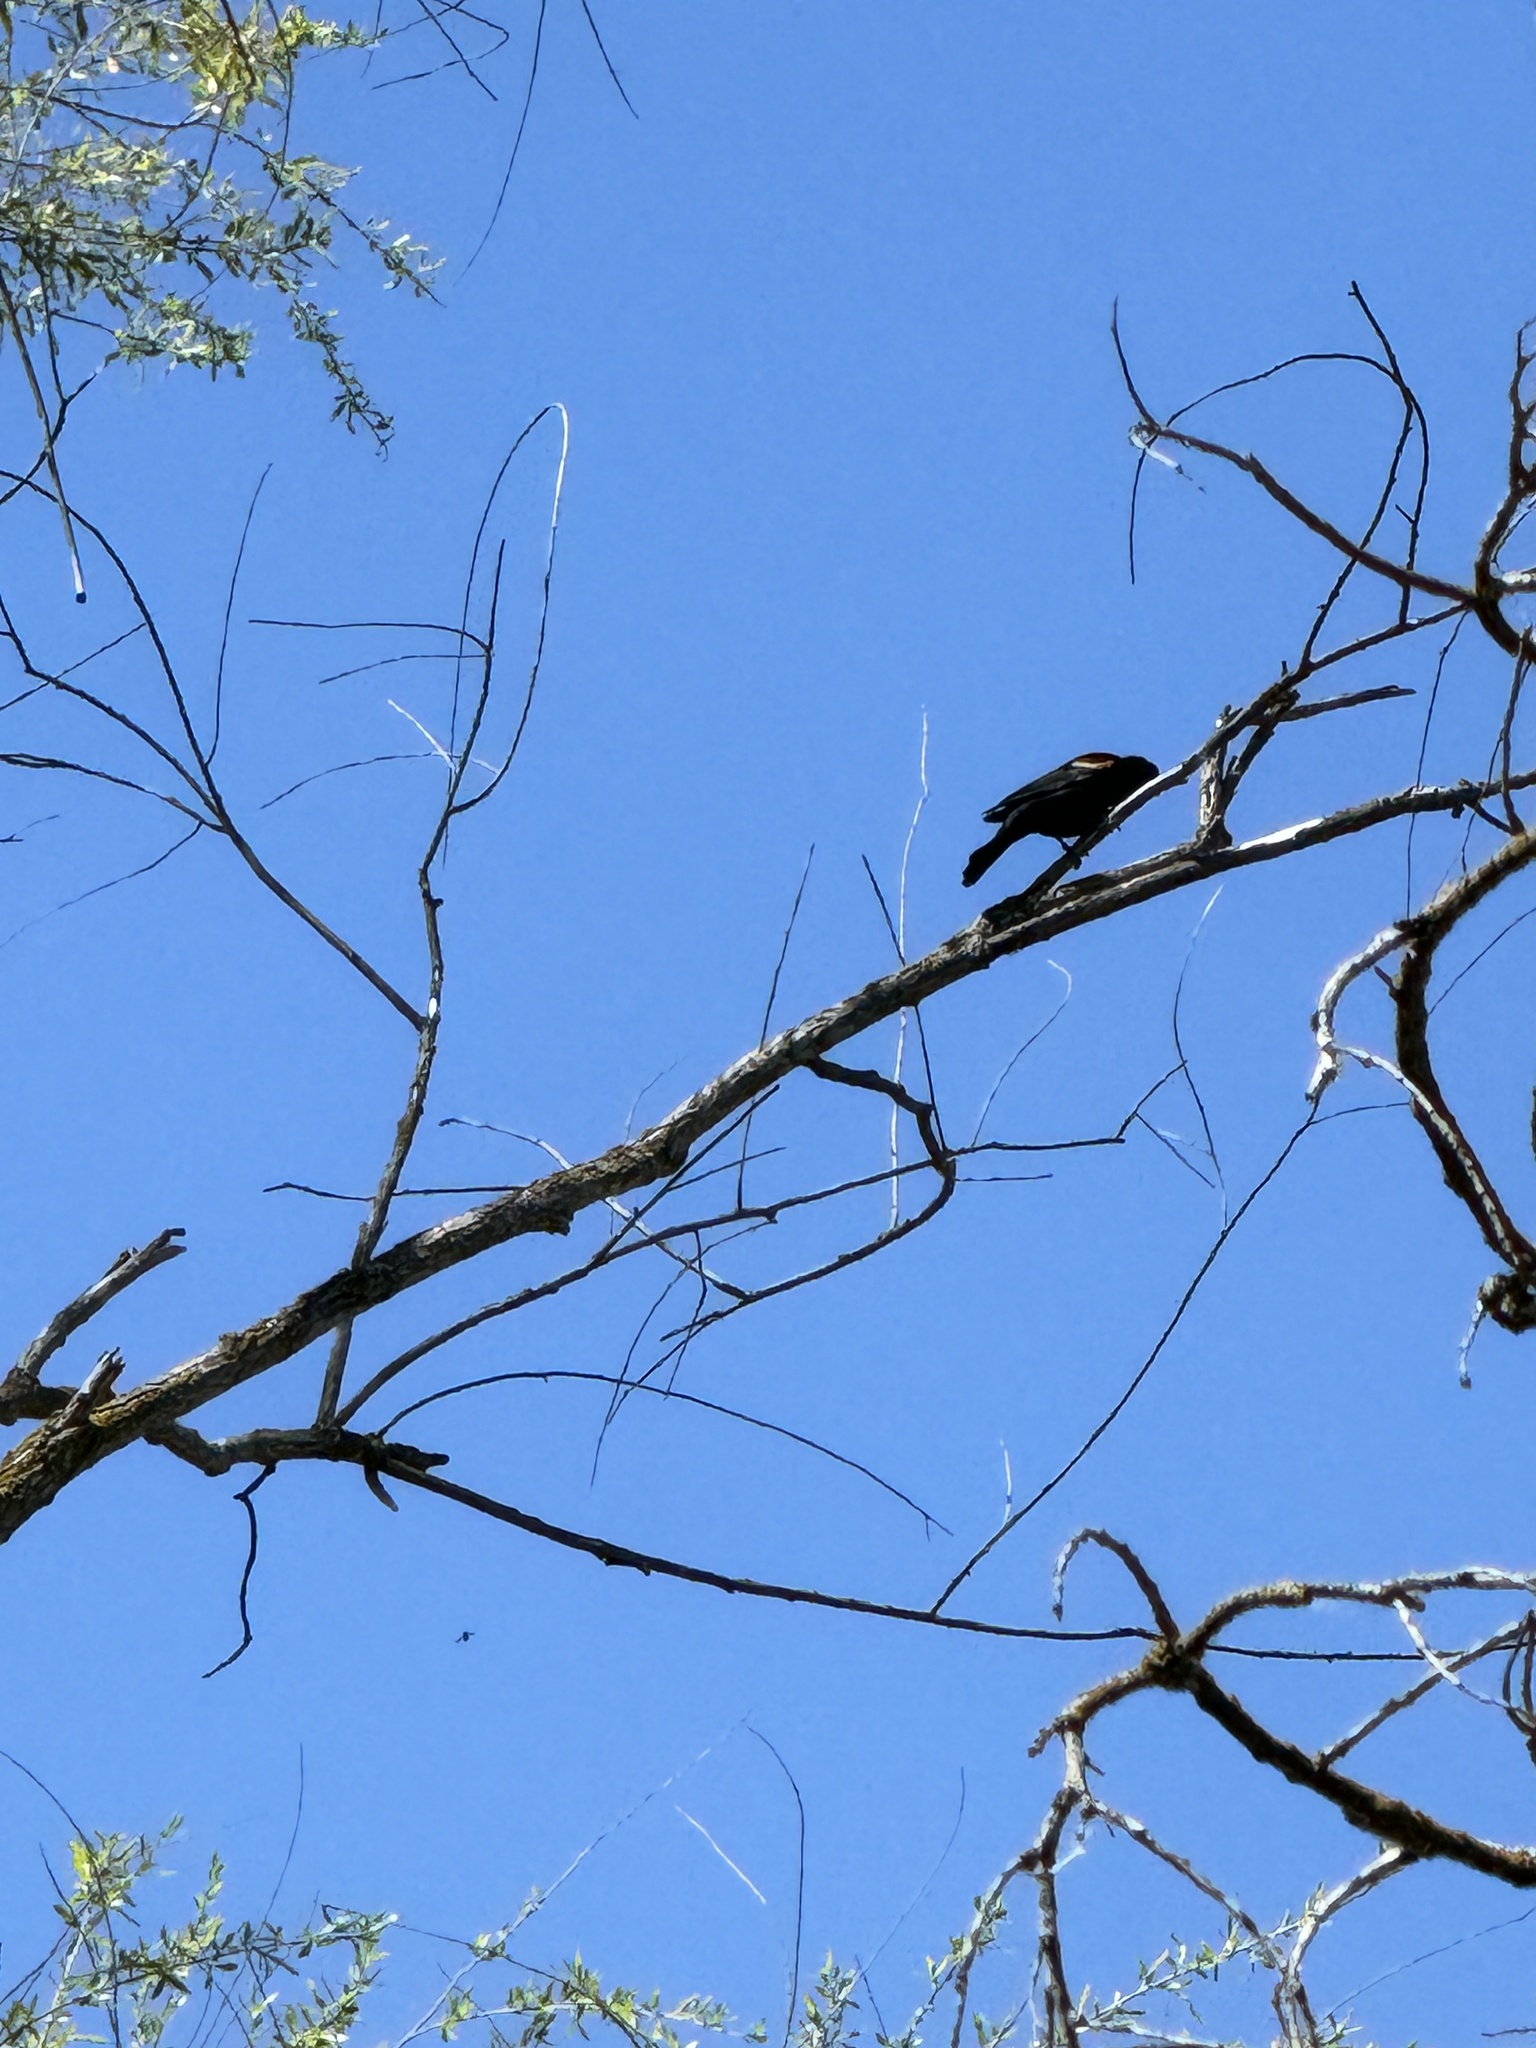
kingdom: Animalia
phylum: Chordata
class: Aves
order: Passeriformes
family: Icteridae
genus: Agelaius
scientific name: Agelaius phoeniceus
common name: Red-winged blackbird
